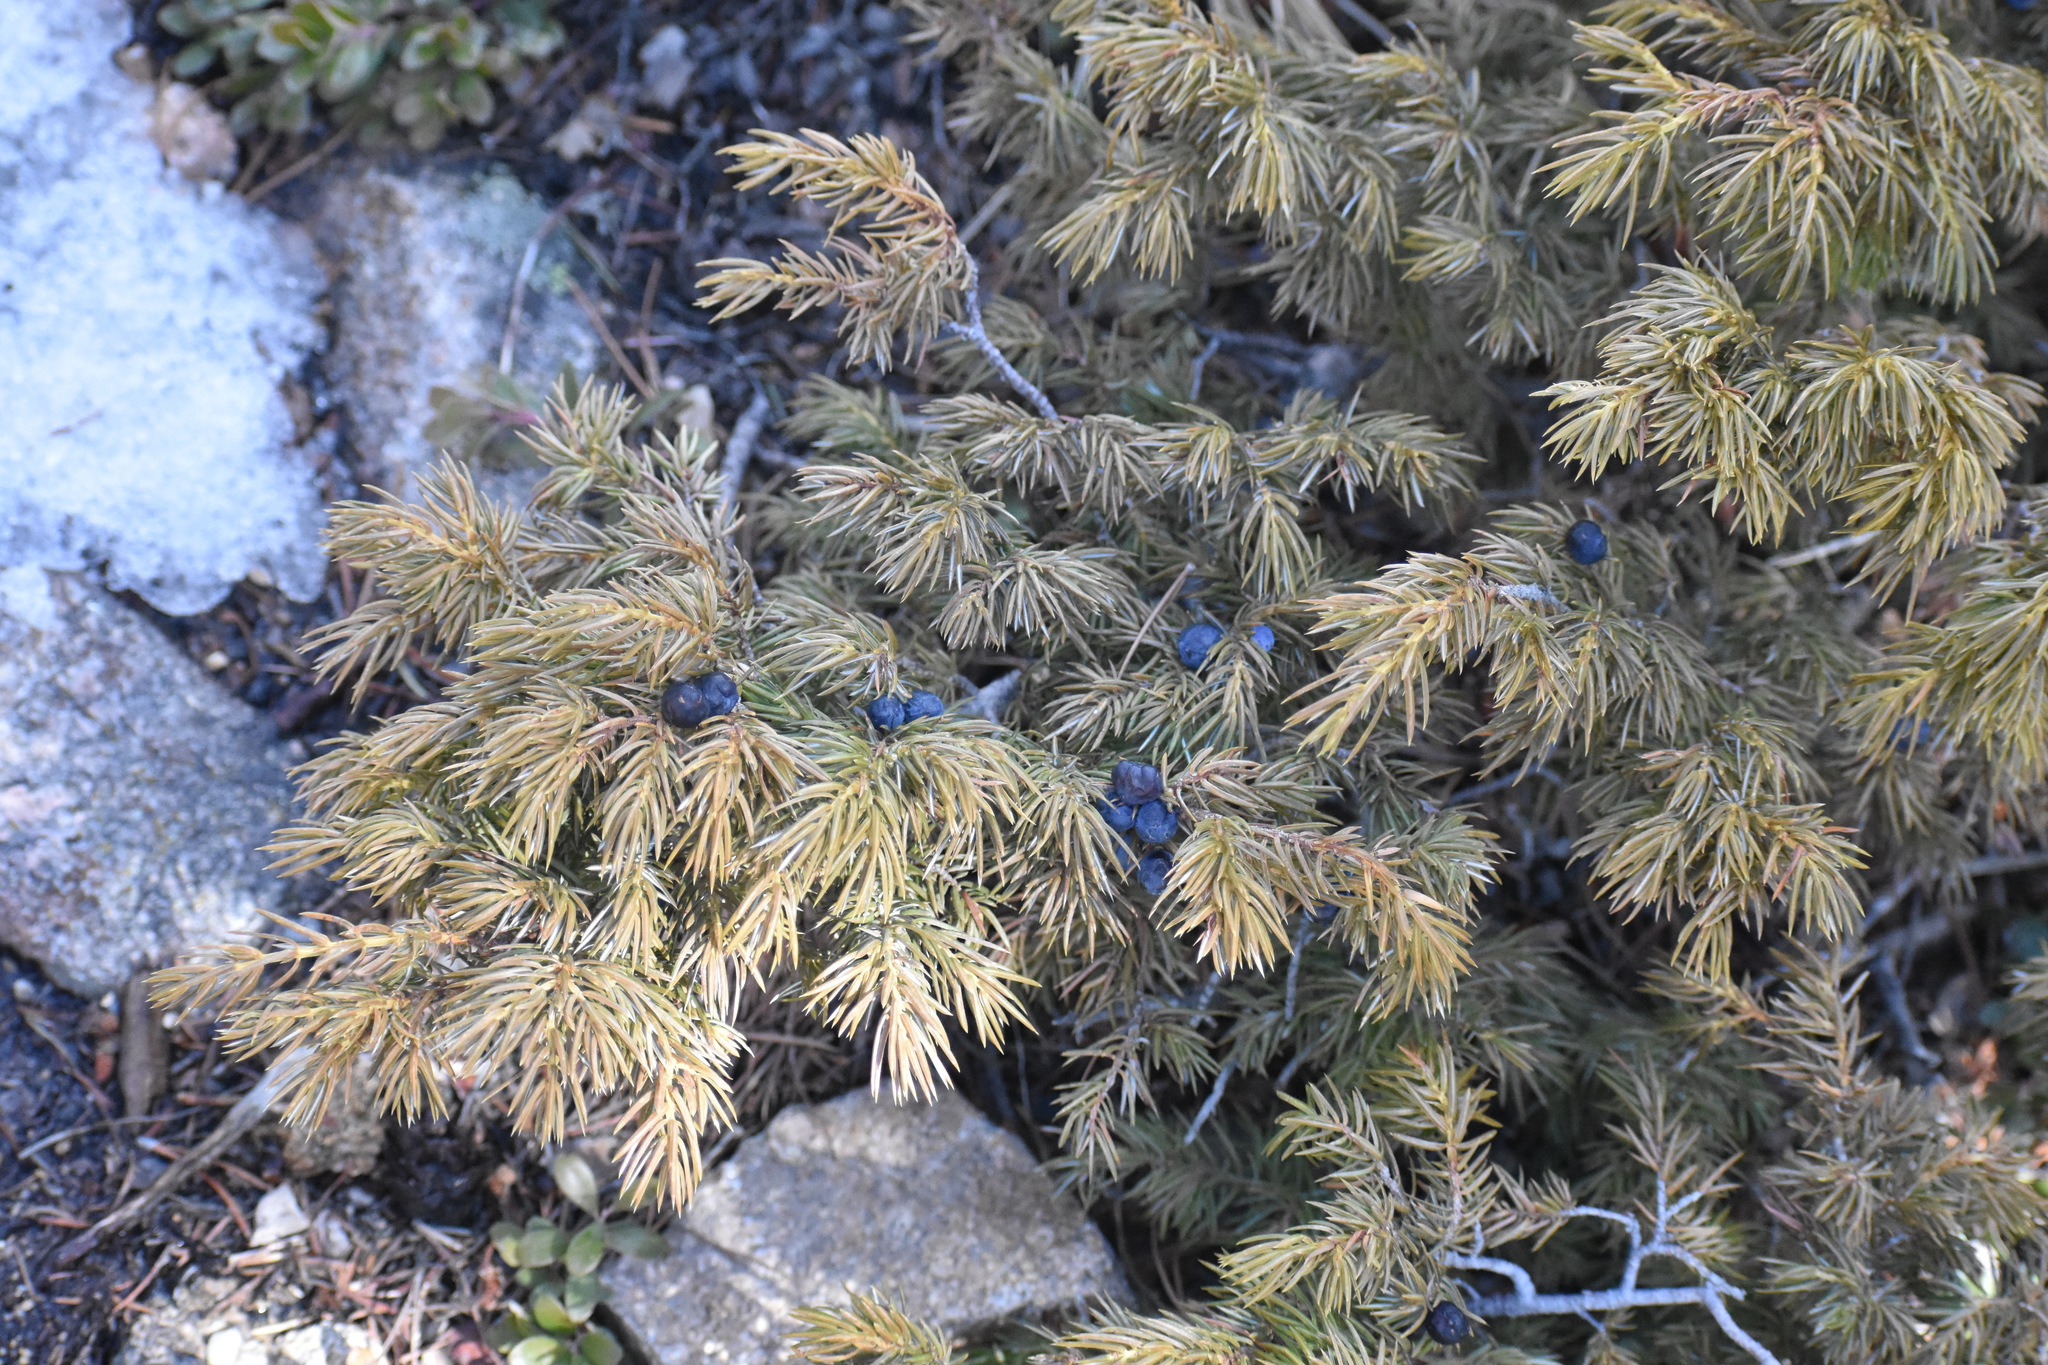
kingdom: Plantae
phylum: Tracheophyta
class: Pinopsida
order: Pinales
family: Cupressaceae
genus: Juniperus
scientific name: Juniperus communis
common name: Common juniper
